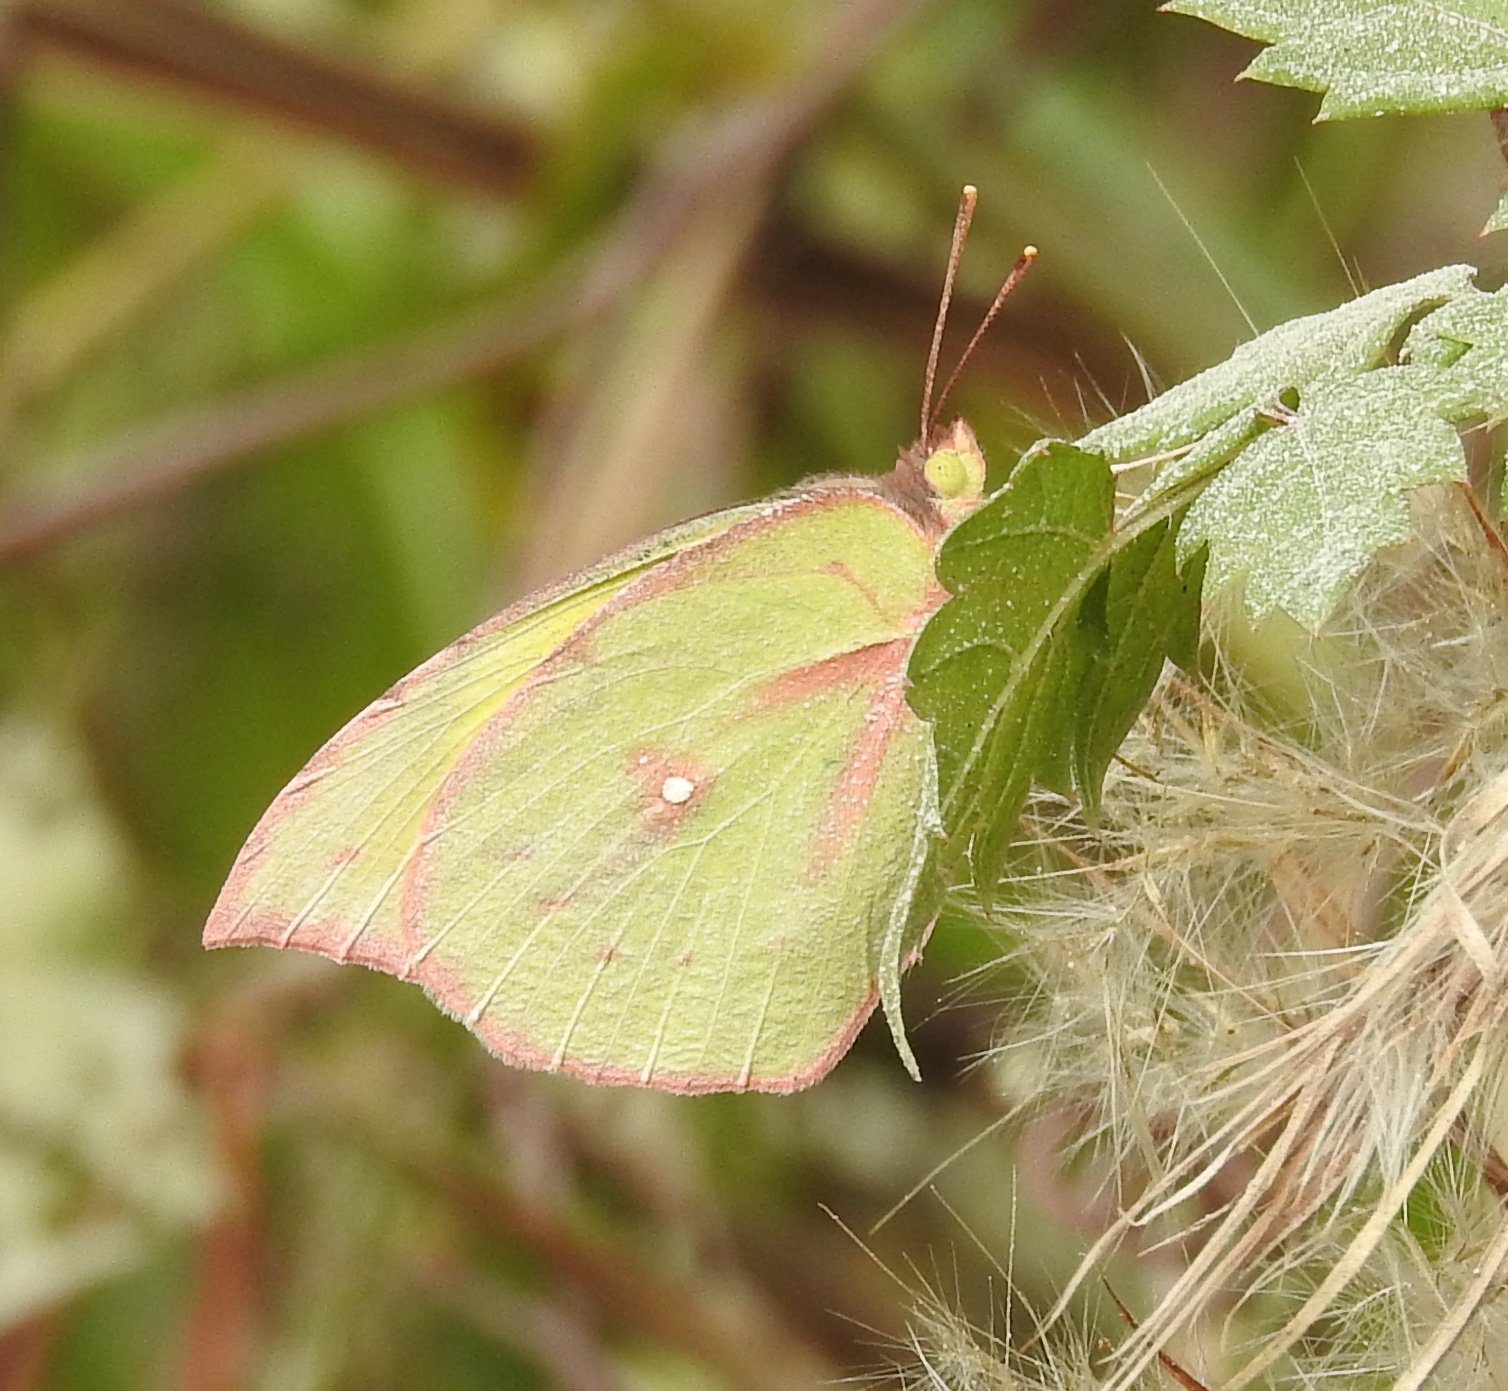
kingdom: Animalia
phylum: Arthropoda
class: Insecta
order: Lepidoptera
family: Pieridae
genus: Zerene
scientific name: Zerene cesonia
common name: Southern dogface
